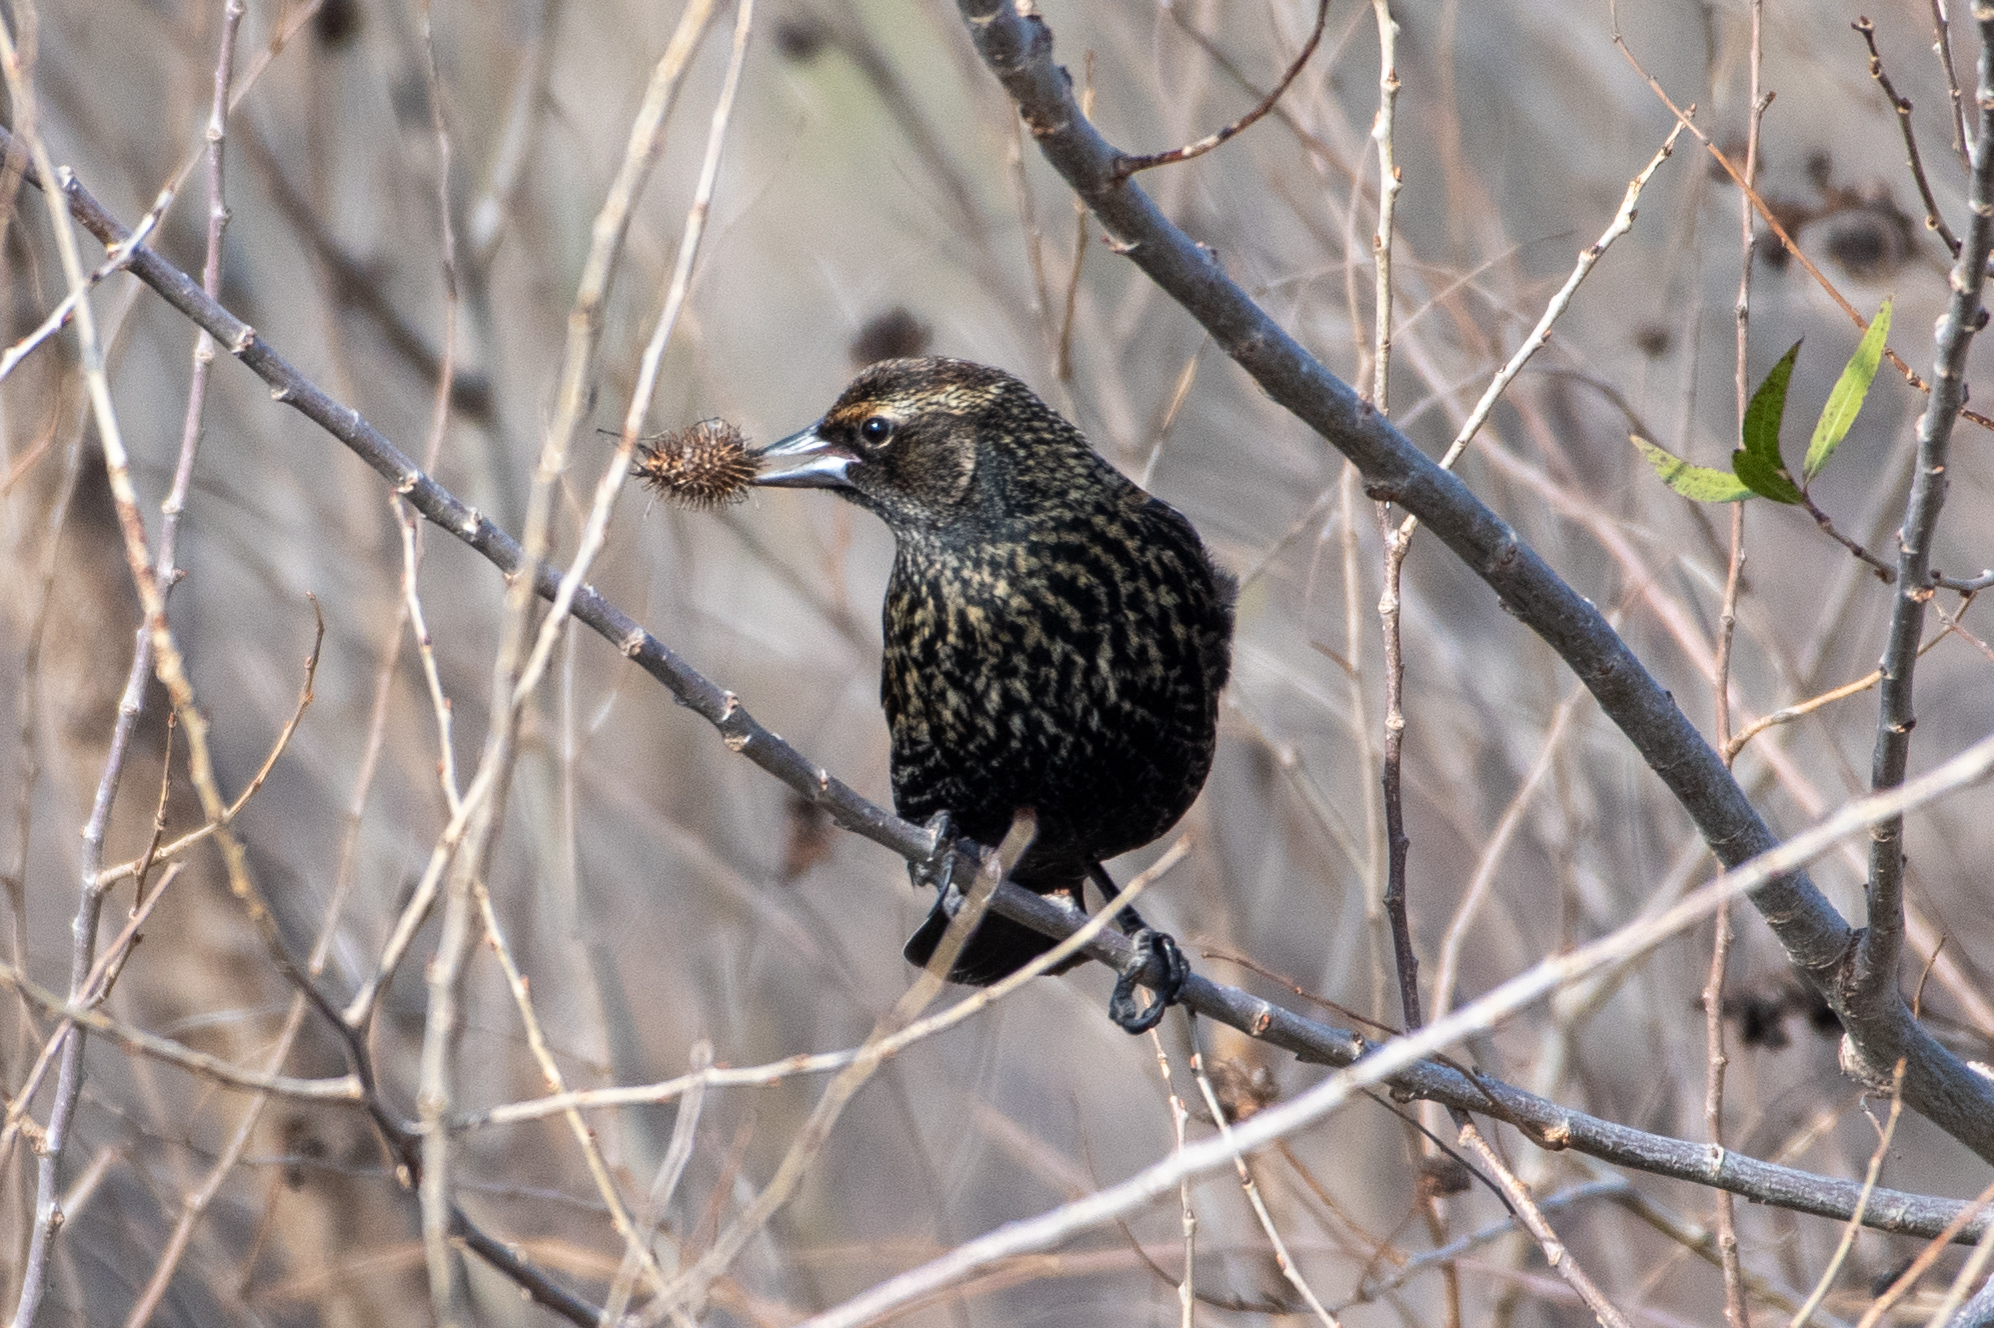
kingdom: Animalia
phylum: Chordata
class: Aves
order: Passeriformes
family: Icteridae
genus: Agelaius
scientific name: Agelaius phoeniceus
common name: Red-winged blackbird
